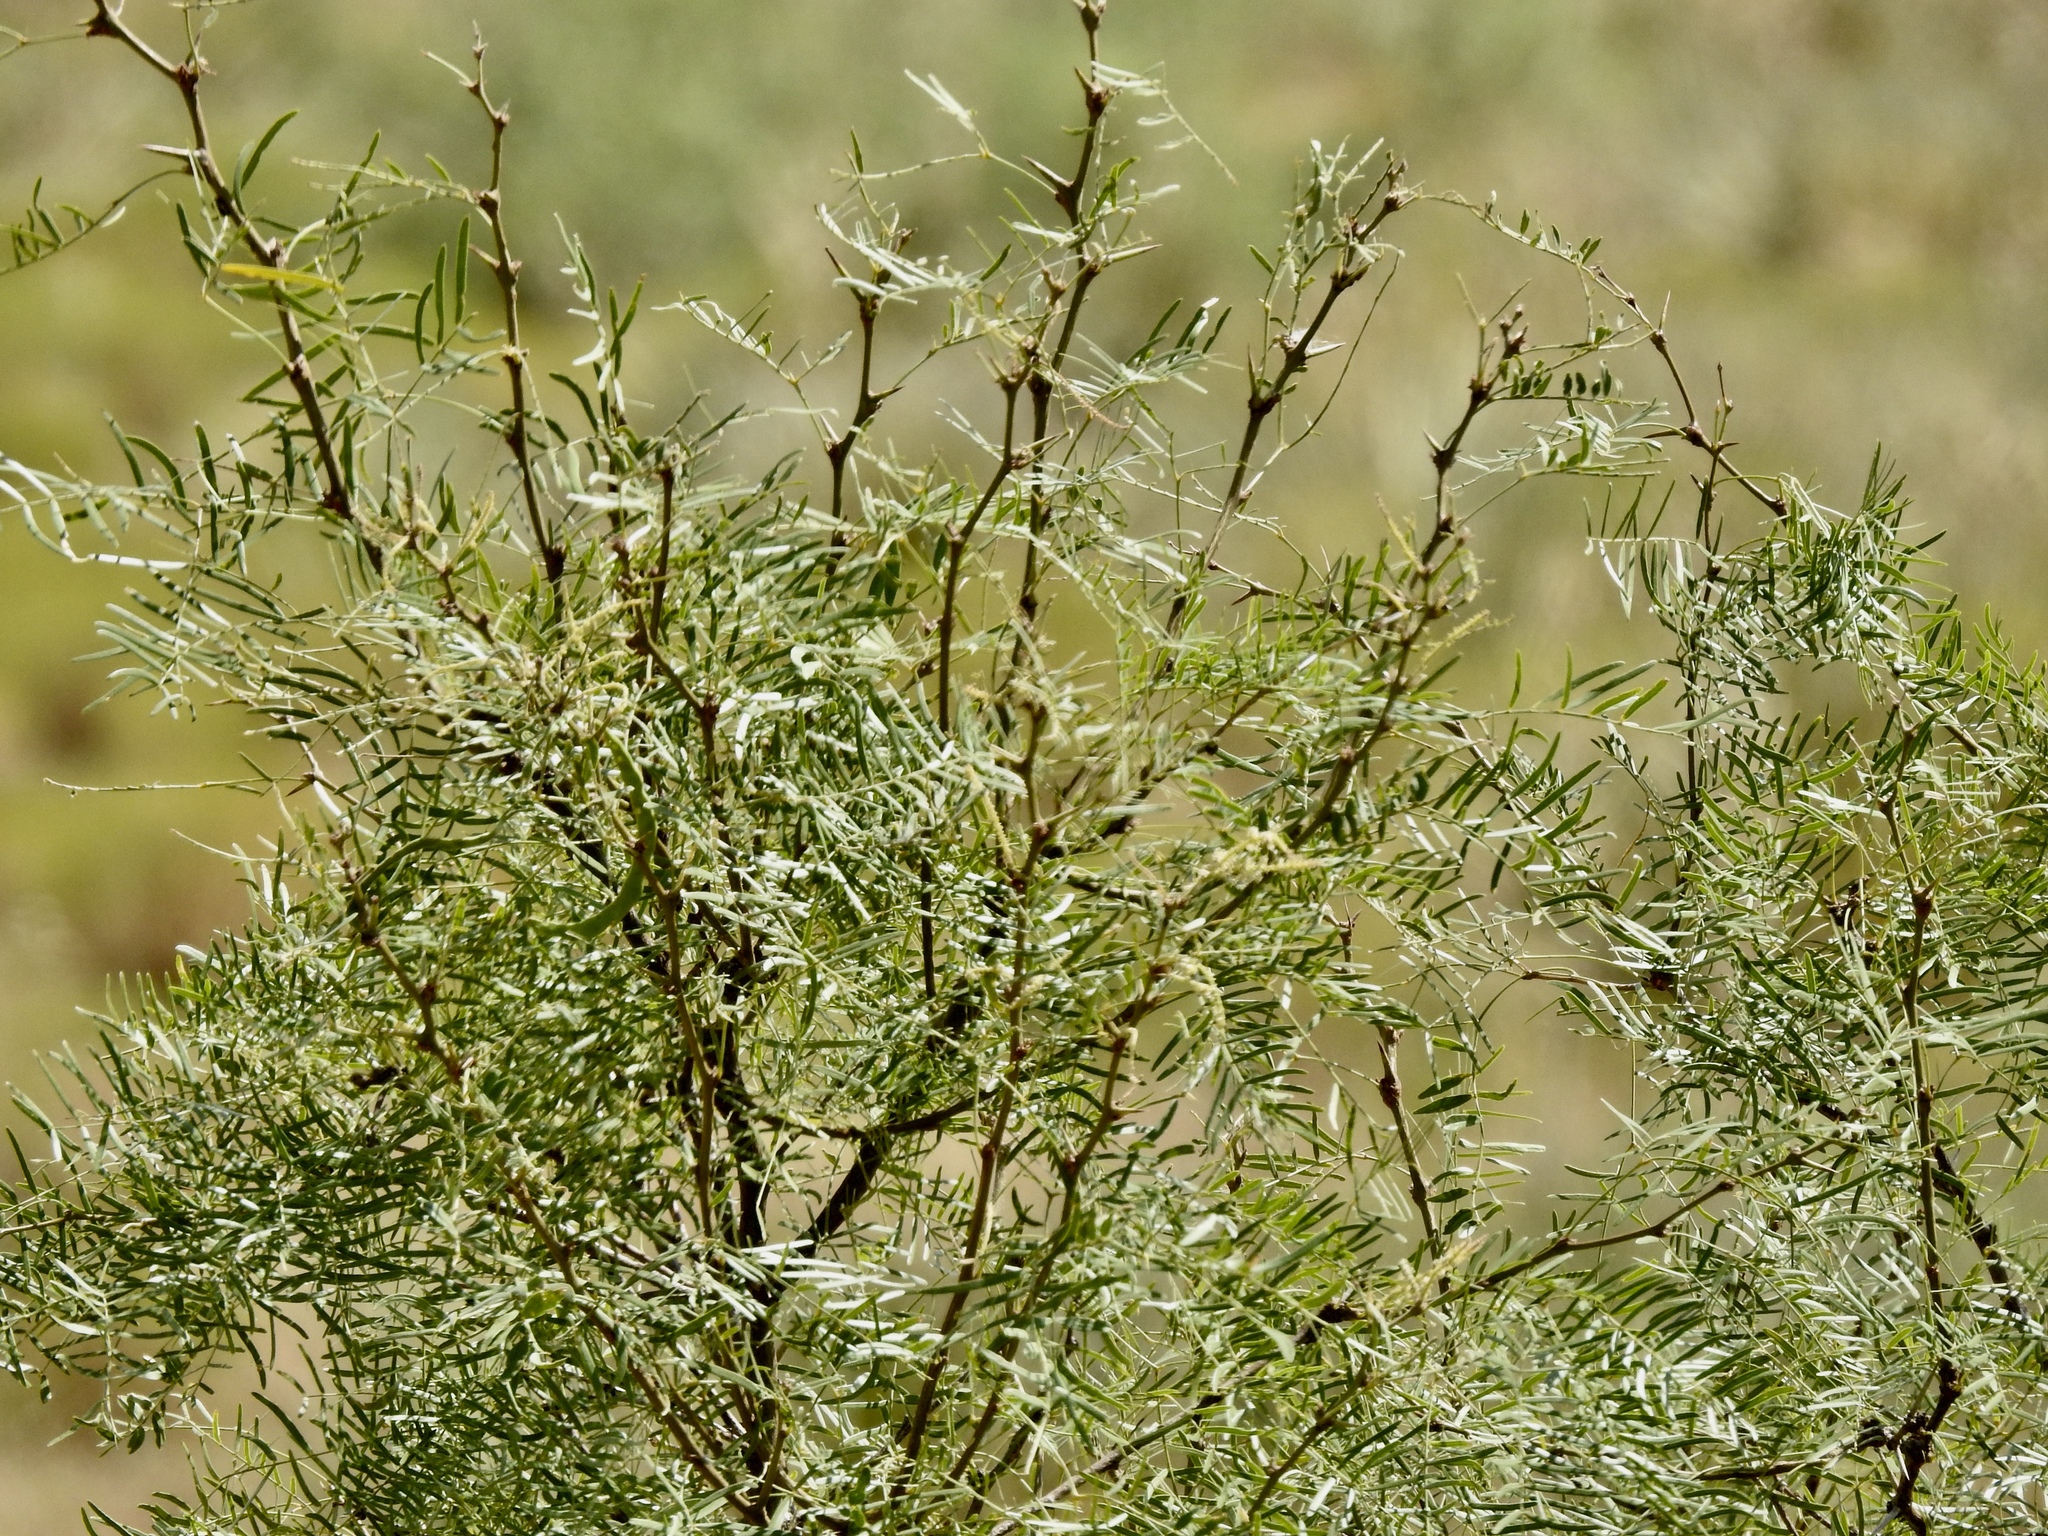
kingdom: Plantae
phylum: Tracheophyta
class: Magnoliopsida
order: Fabales
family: Fabaceae
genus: Prosopis
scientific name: Prosopis glandulosa
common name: Honey mesquite
